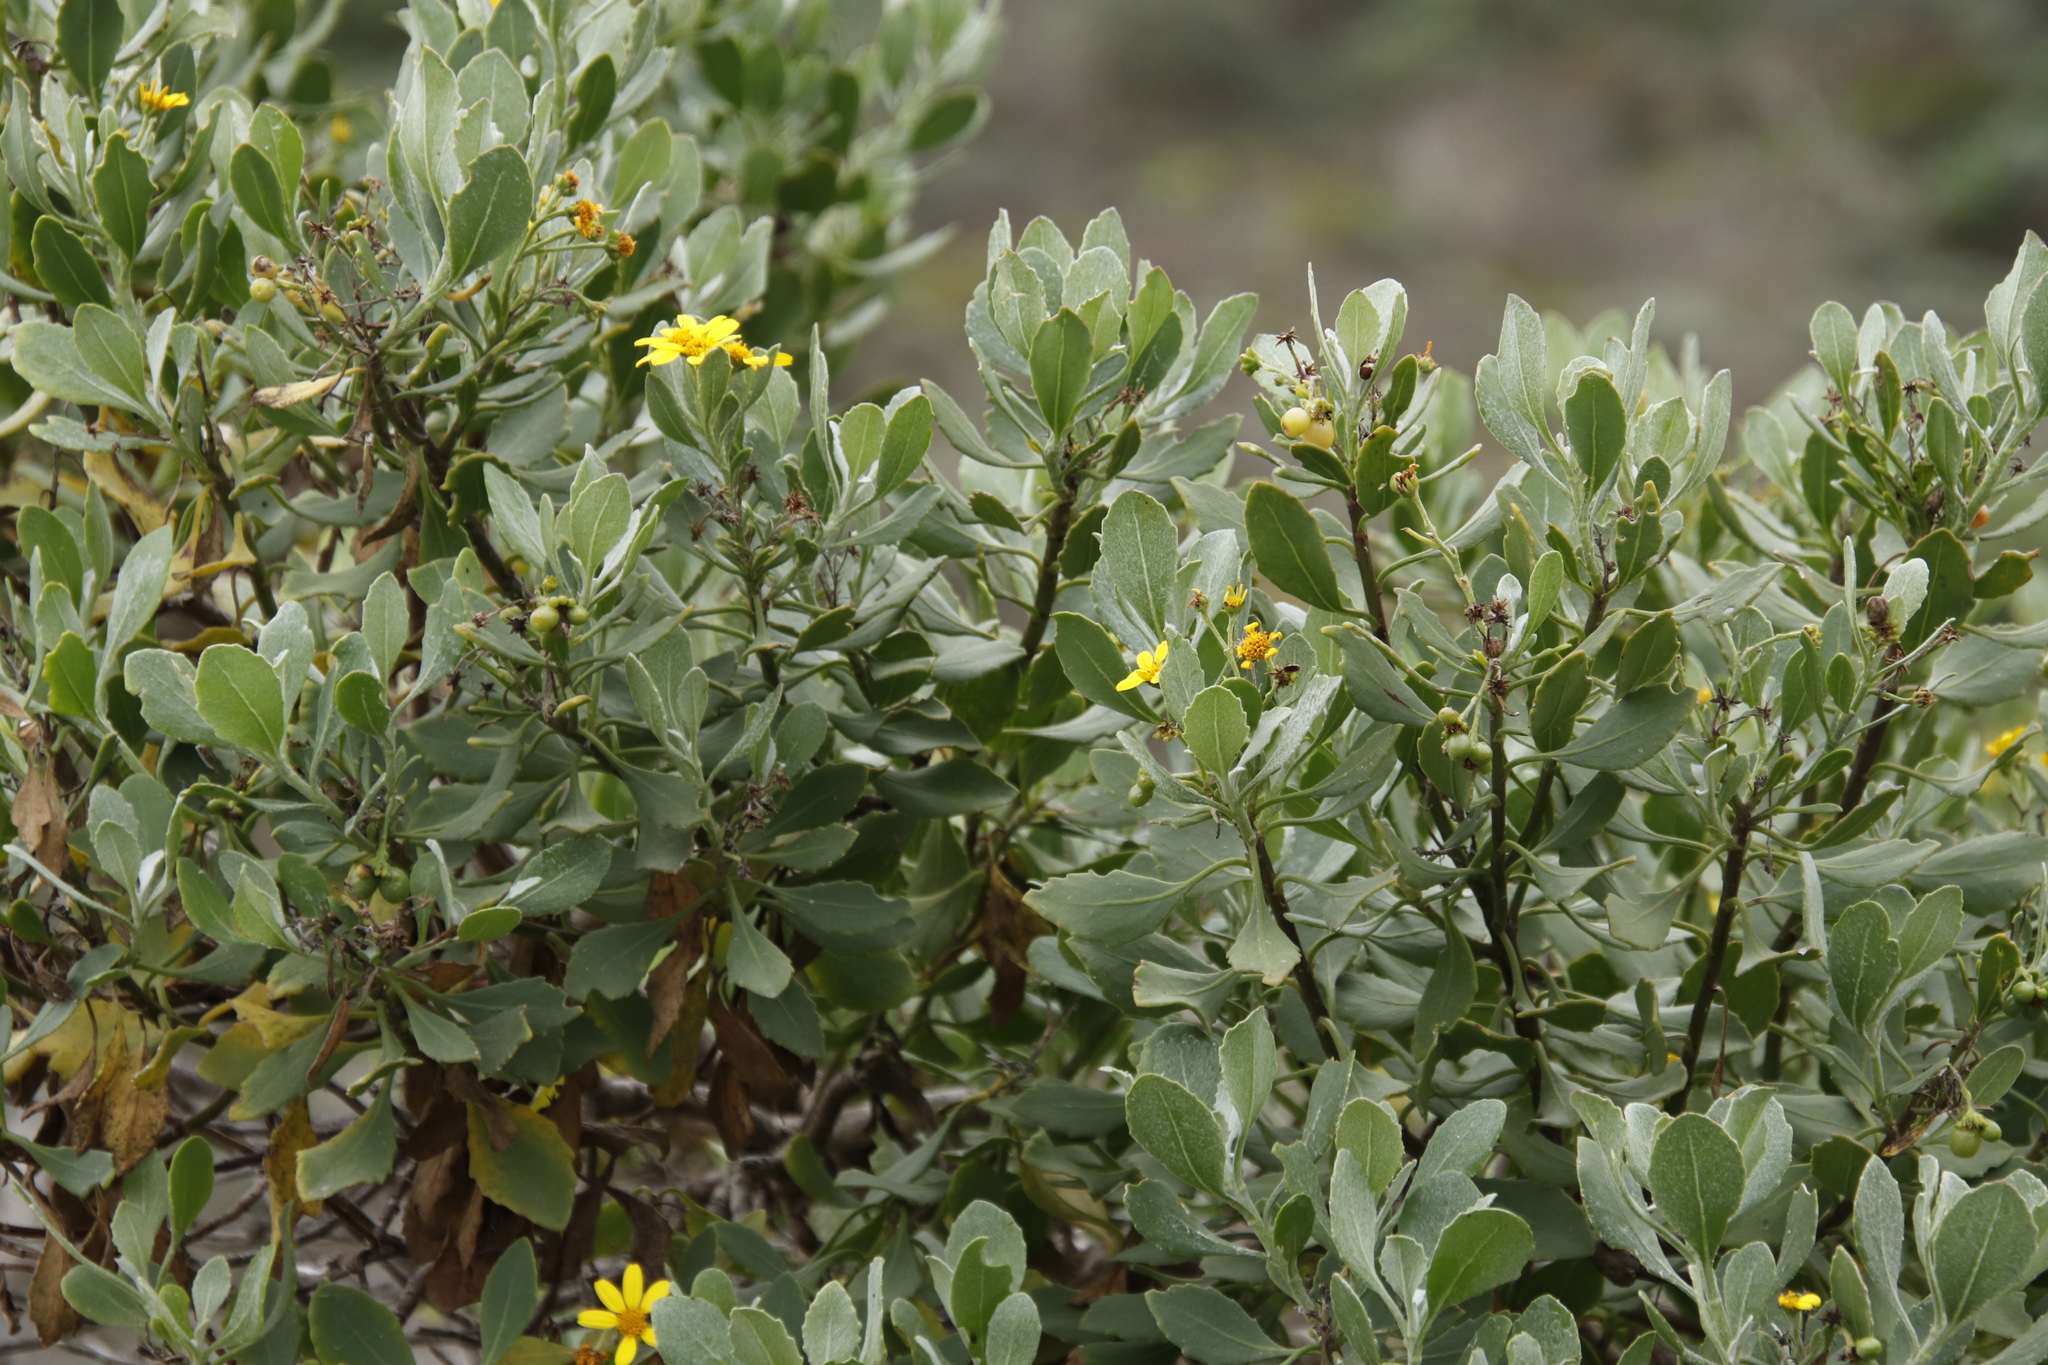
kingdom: Plantae
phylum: Tracheophyta
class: Magnoliopsida
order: Asterales
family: Asteraceae
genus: Osteospermum
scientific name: Osteospermum moniliferum
